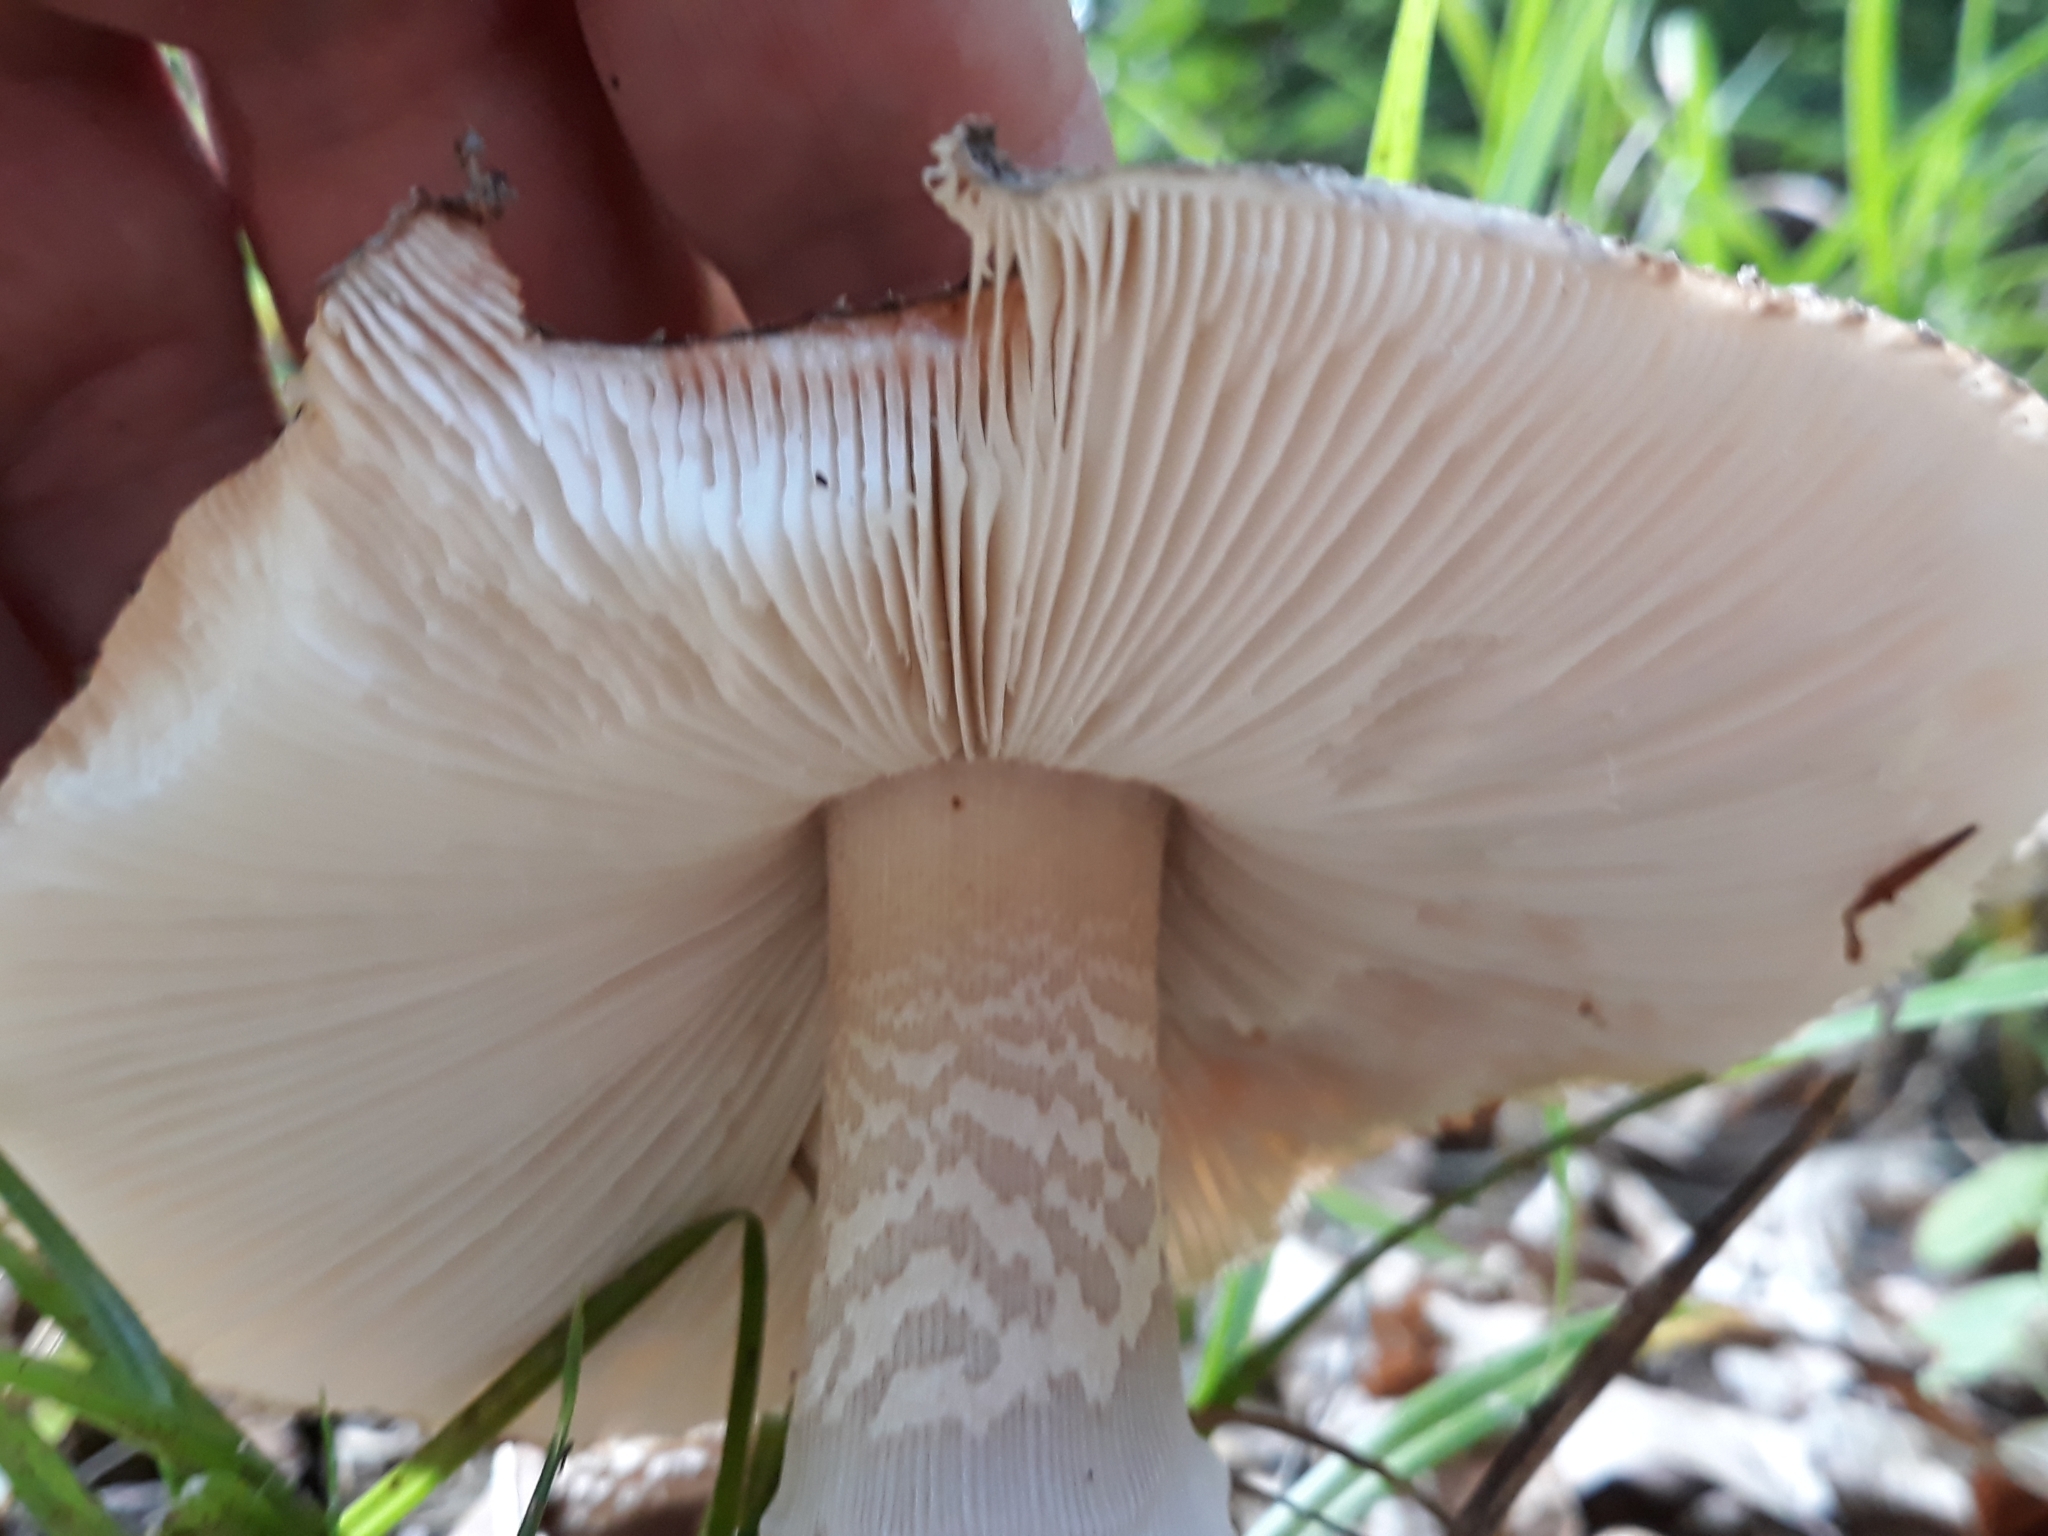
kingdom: Fungi
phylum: Basidiomycota
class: Agaricomycetes
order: Agaricales
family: Amanitaceae
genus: Amanita
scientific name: Amanita rubescens
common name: Blusher
